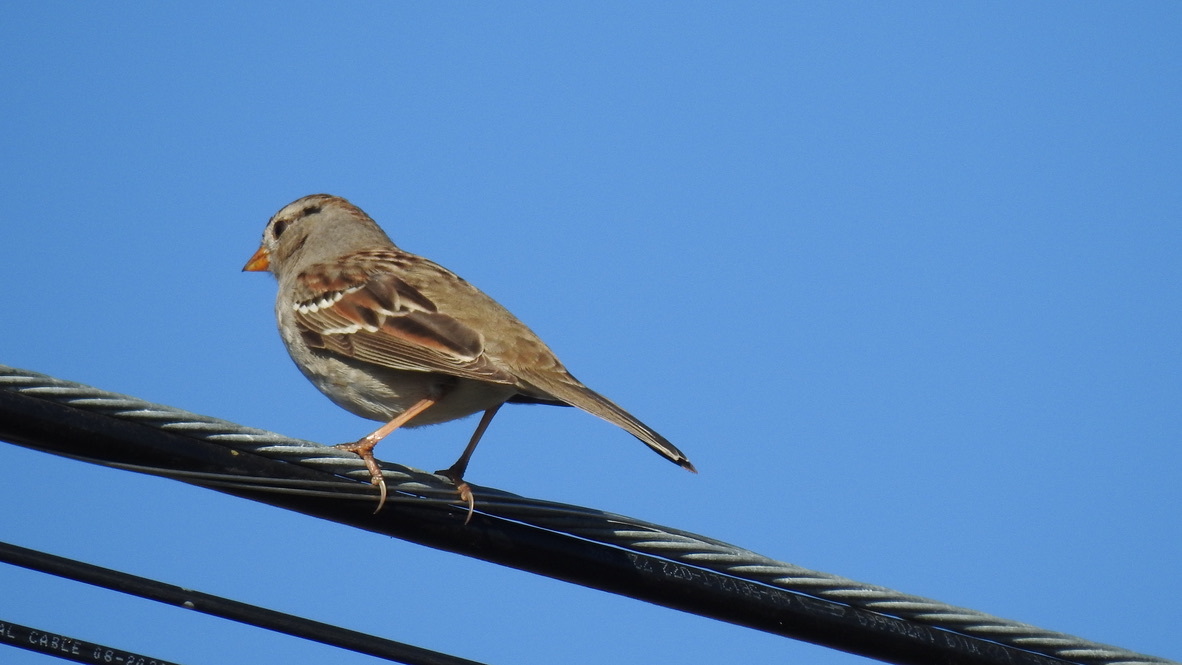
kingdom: Animalia
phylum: Chordata
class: Aves
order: Passeriformes
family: Passerellidae
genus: Zonotrichia
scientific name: Zonotrichia leucophrys
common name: White-crowned sparrow
